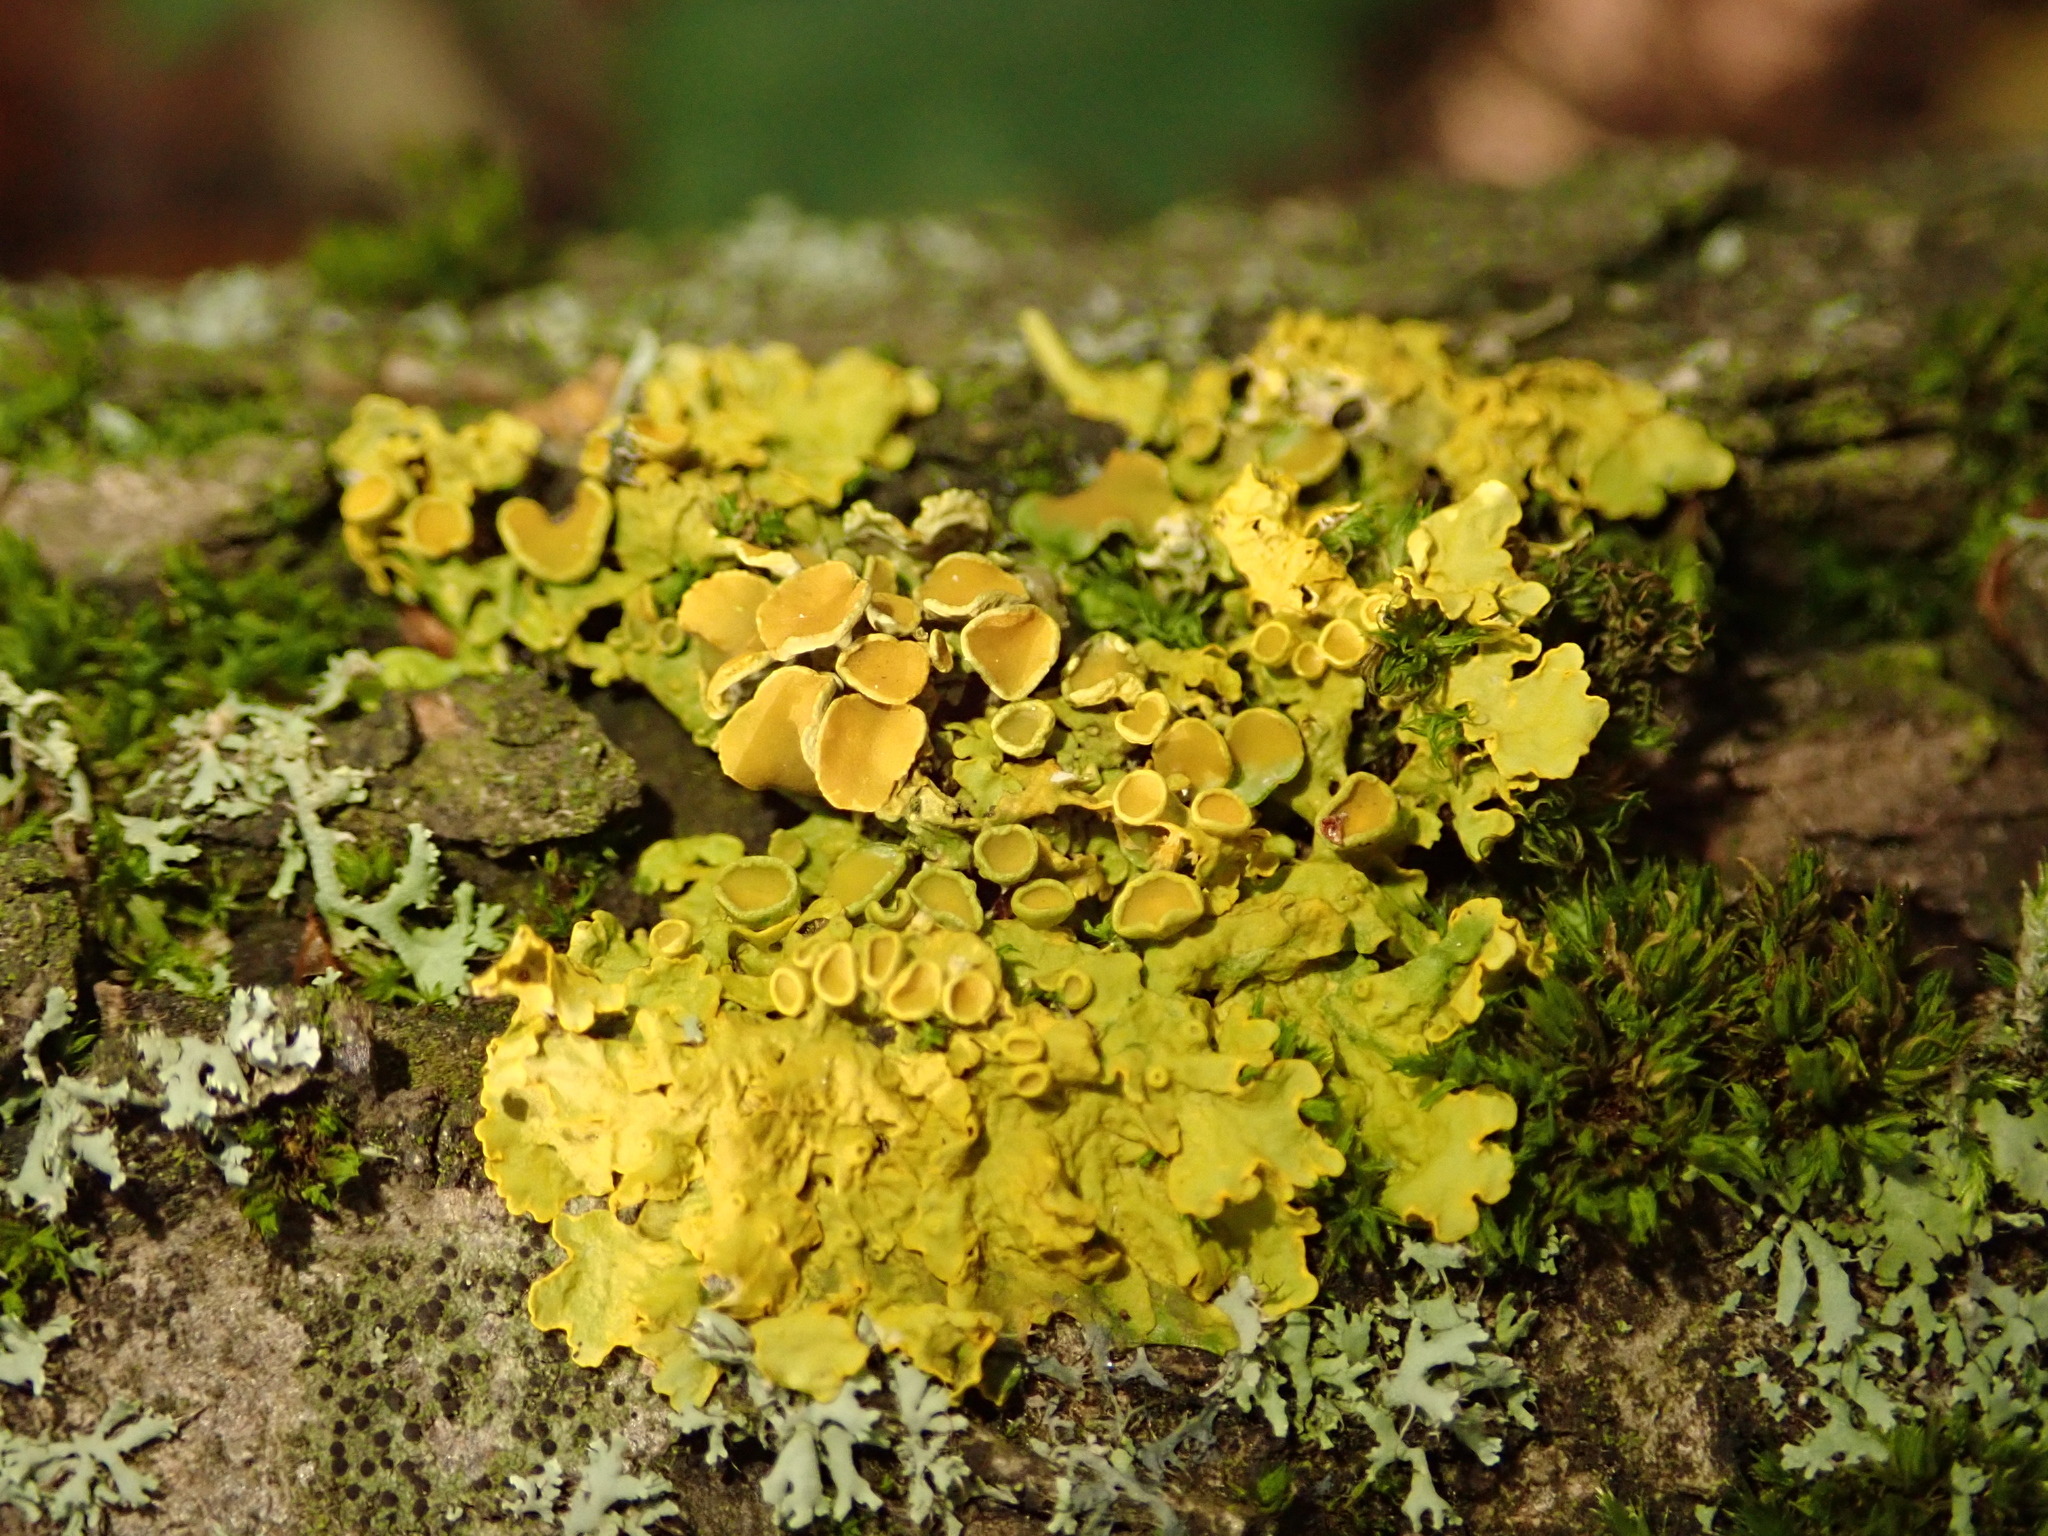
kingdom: Fungi
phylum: Ascomycota
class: Lecanoromycetes
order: Teloschistales
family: Teloschistaceae
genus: Xanthoria
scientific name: Xanthoria parietina
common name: Common orange lichen
